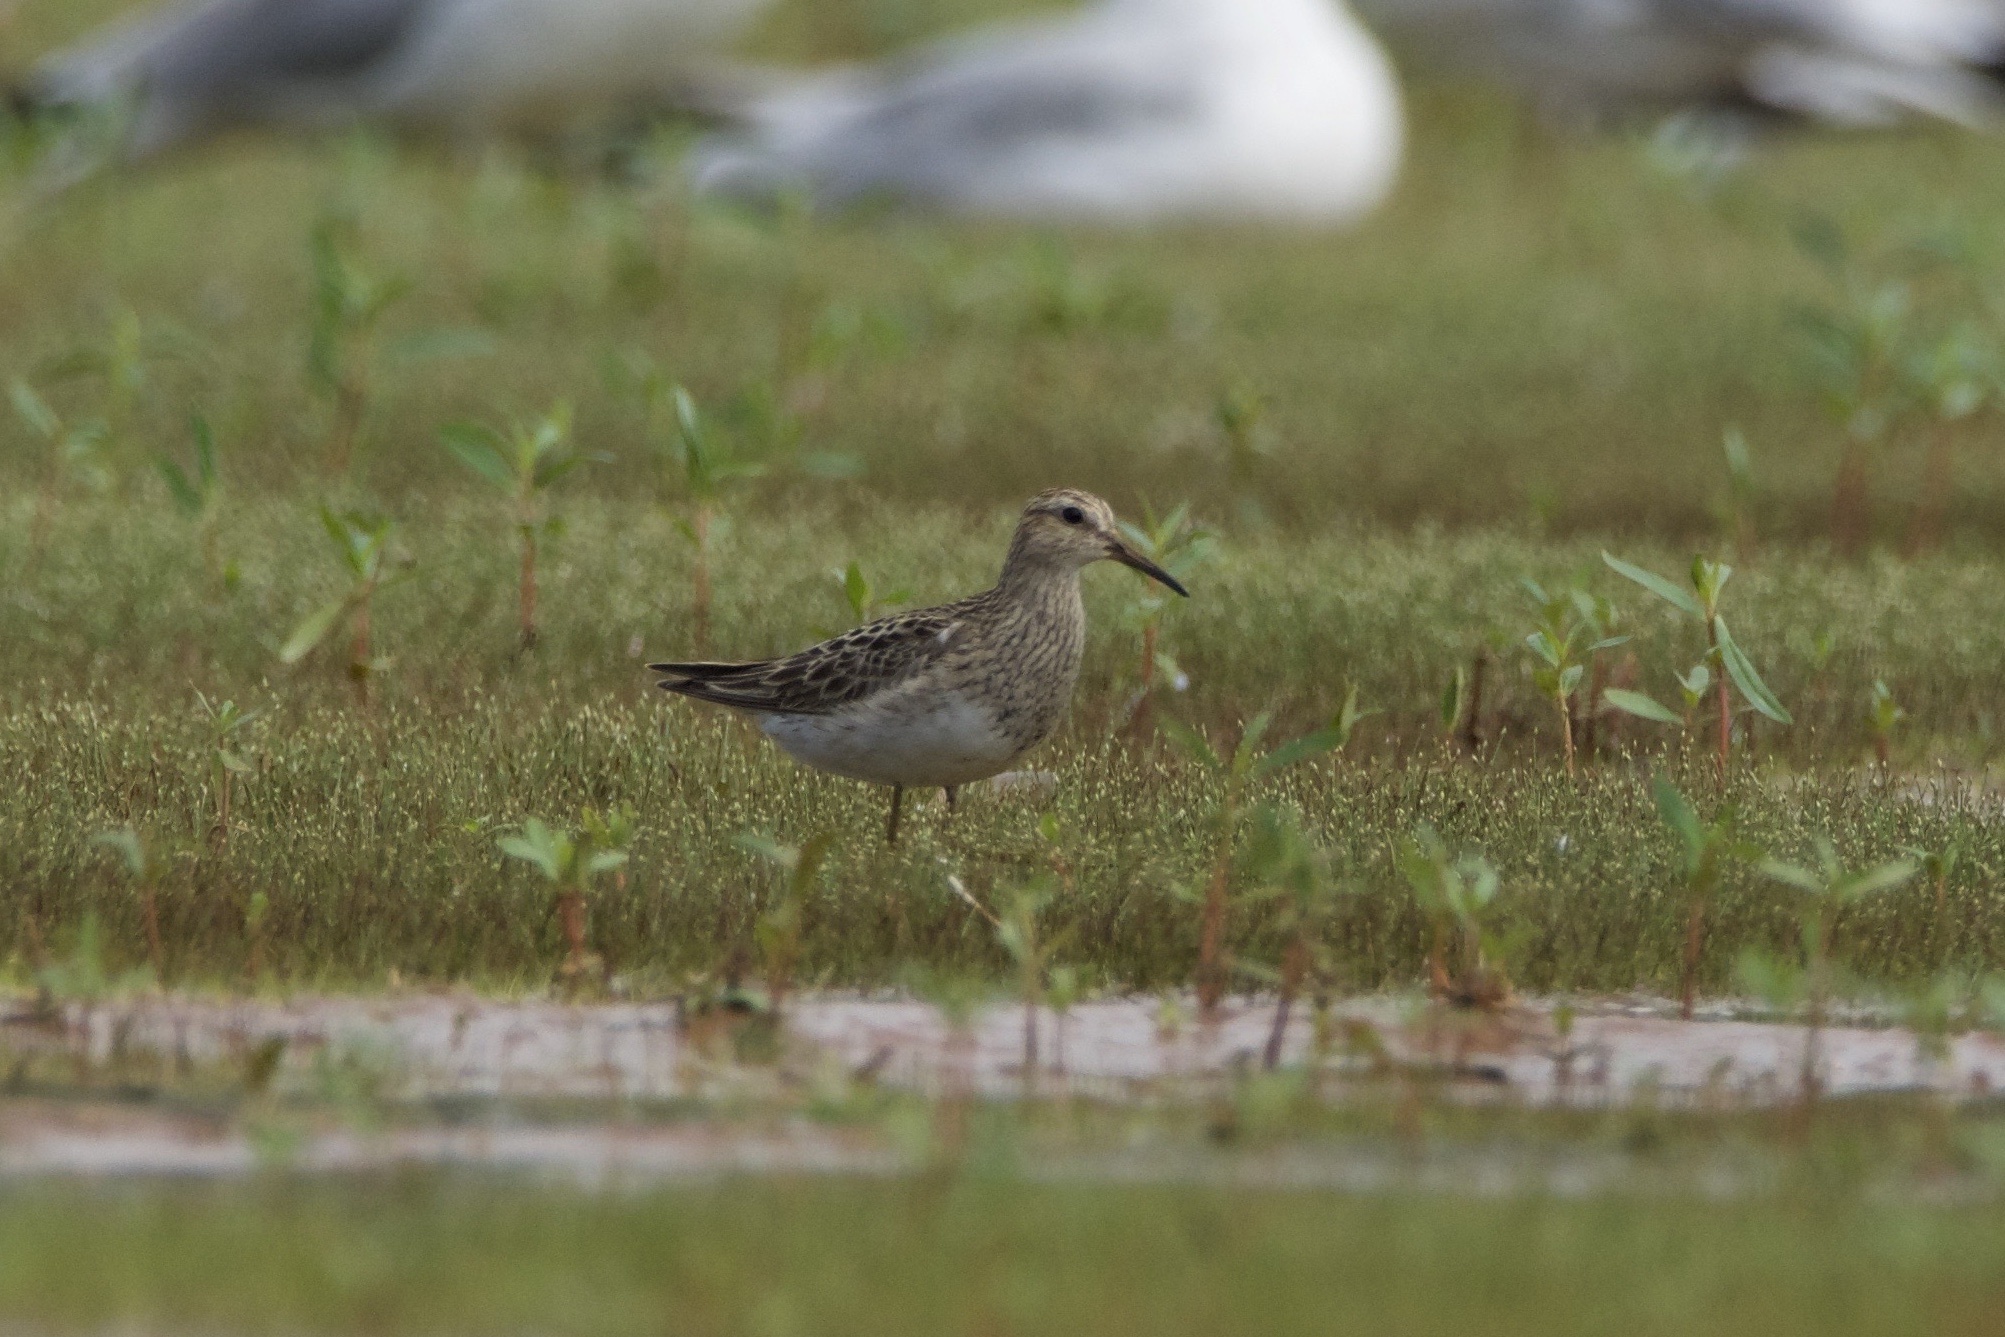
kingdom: Animalia
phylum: Chordata
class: Aves
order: Charadriiformes
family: Scolopacidae
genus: Calidris
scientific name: Calidris melanotos
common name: Pectoral sandpiper
